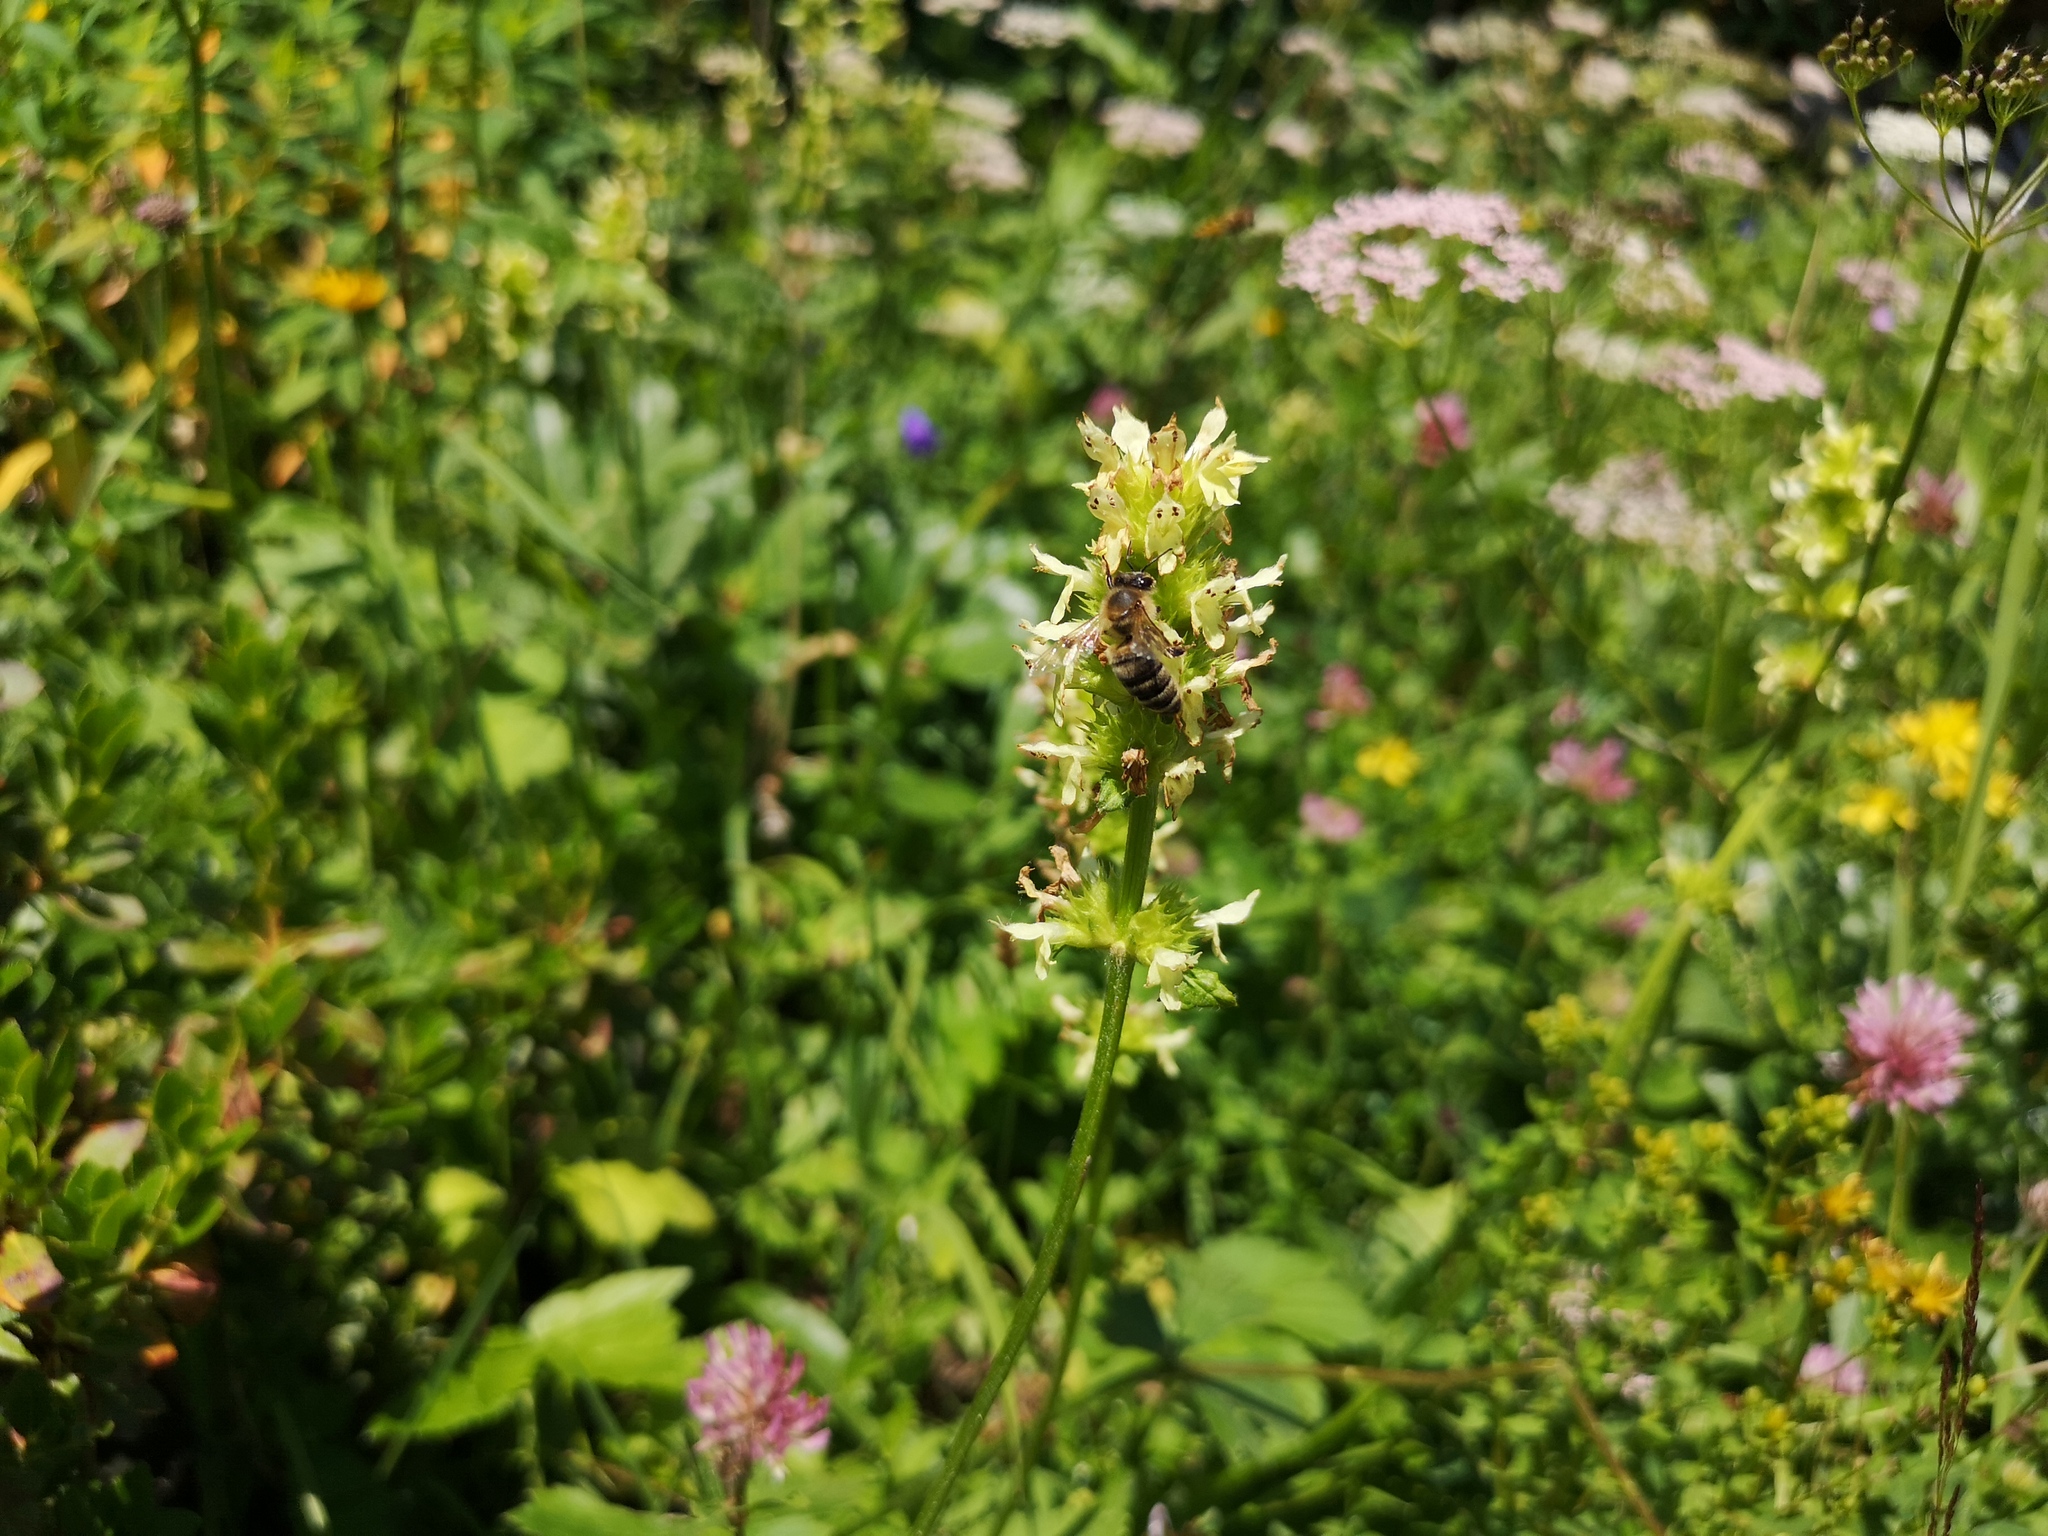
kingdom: Plantae
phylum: Tracheophyta
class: Magnoliopsida
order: Lamiales
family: Lamiaceae
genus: Betonica
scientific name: Betonica alopecuros
